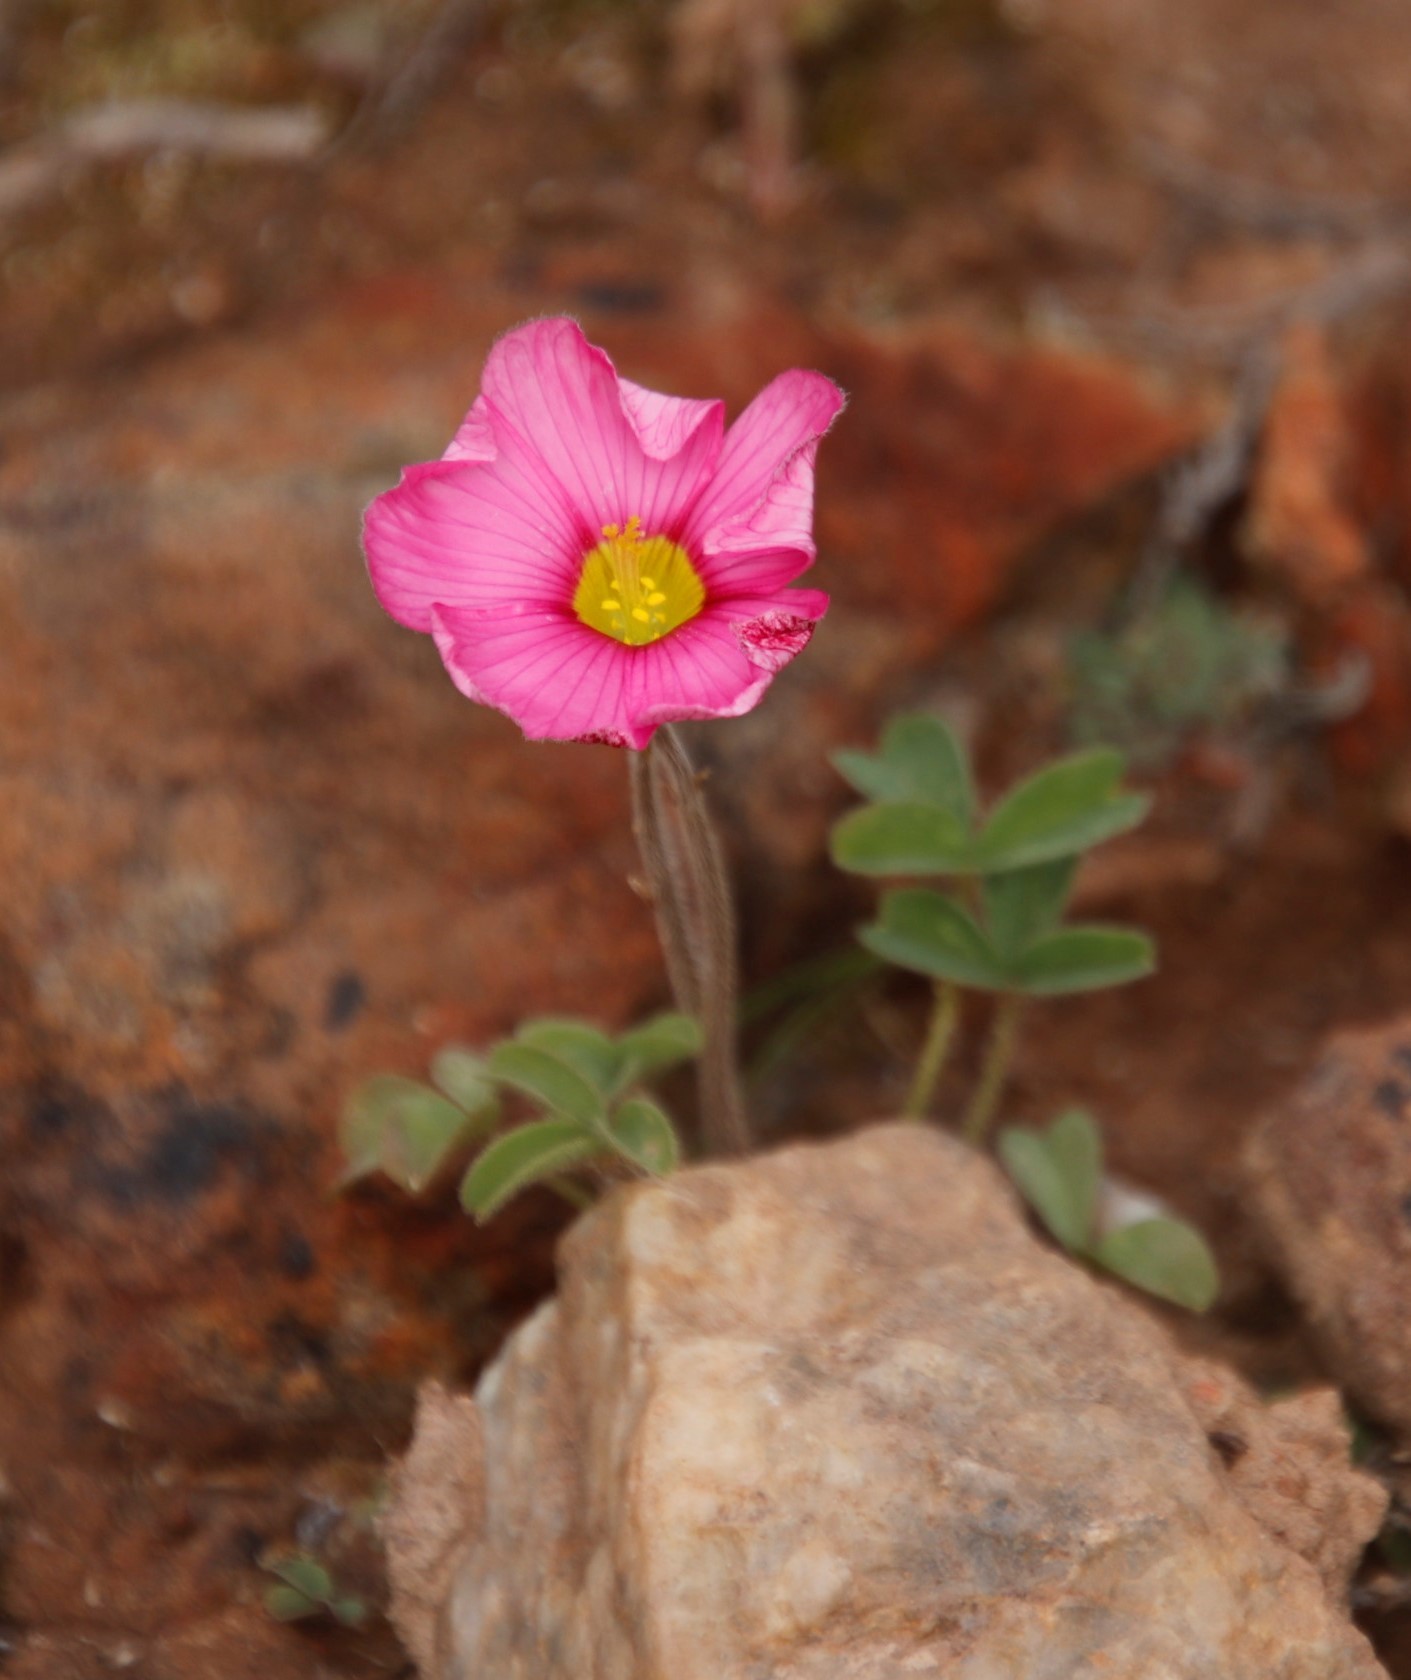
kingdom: Plantae
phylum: Tracheophyta
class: Magnoliopsida
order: Oxalidales
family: Oxalidaceae
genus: Oxalis
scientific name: Oxalis purpurea
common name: Purple woodsorrel
